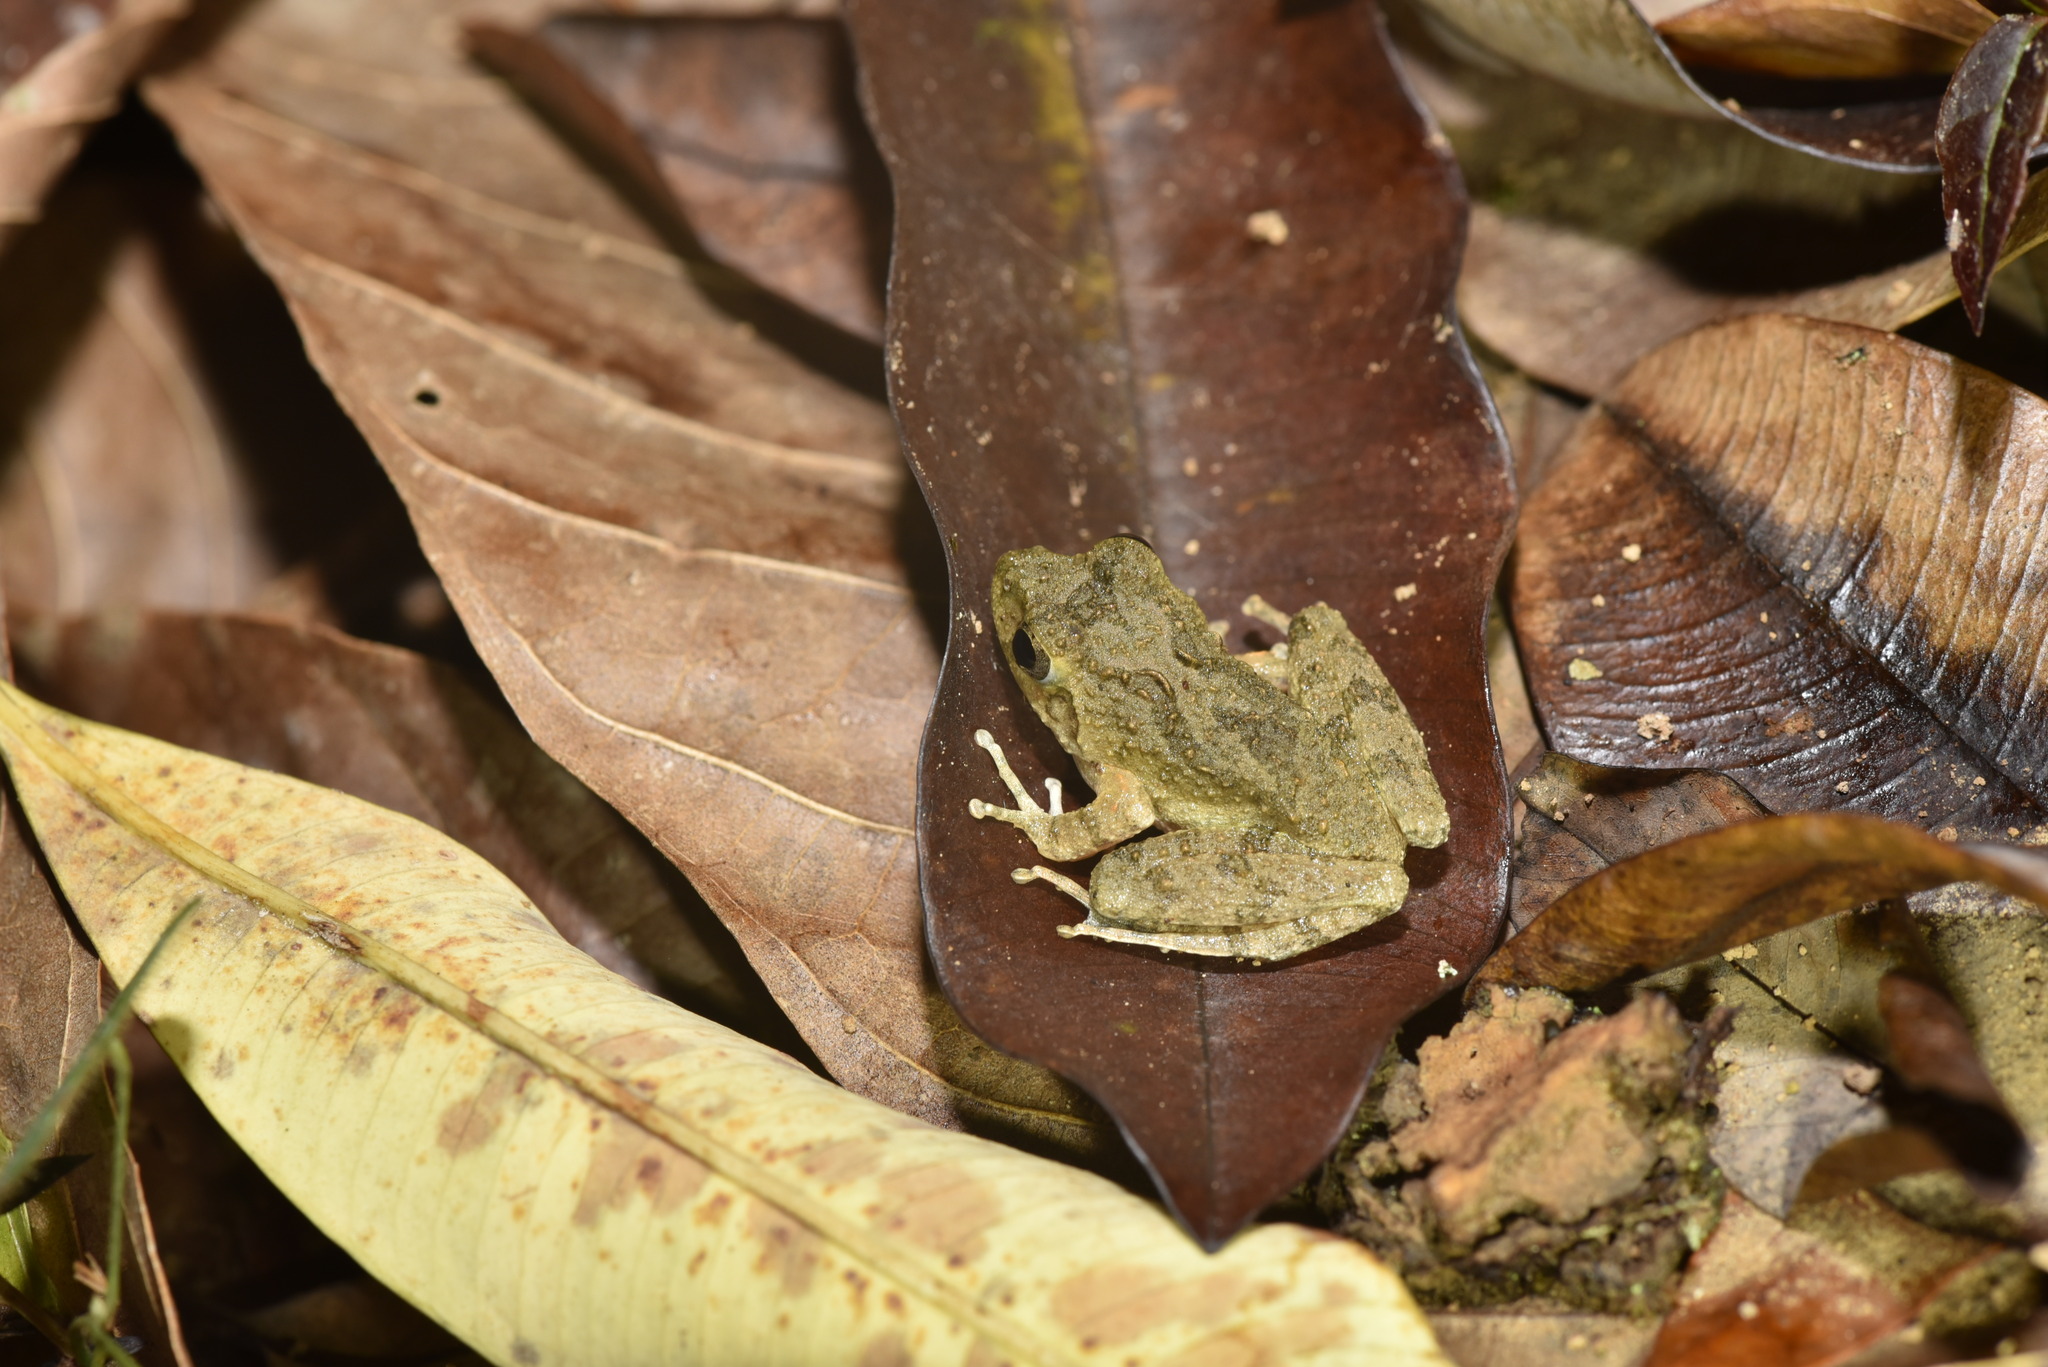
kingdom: Animalia
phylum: Chordata
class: Amphibia
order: Anura
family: Rhacophoridae
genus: Buergeria
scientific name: Buergeria choui
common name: Yaeyama kajika frog
